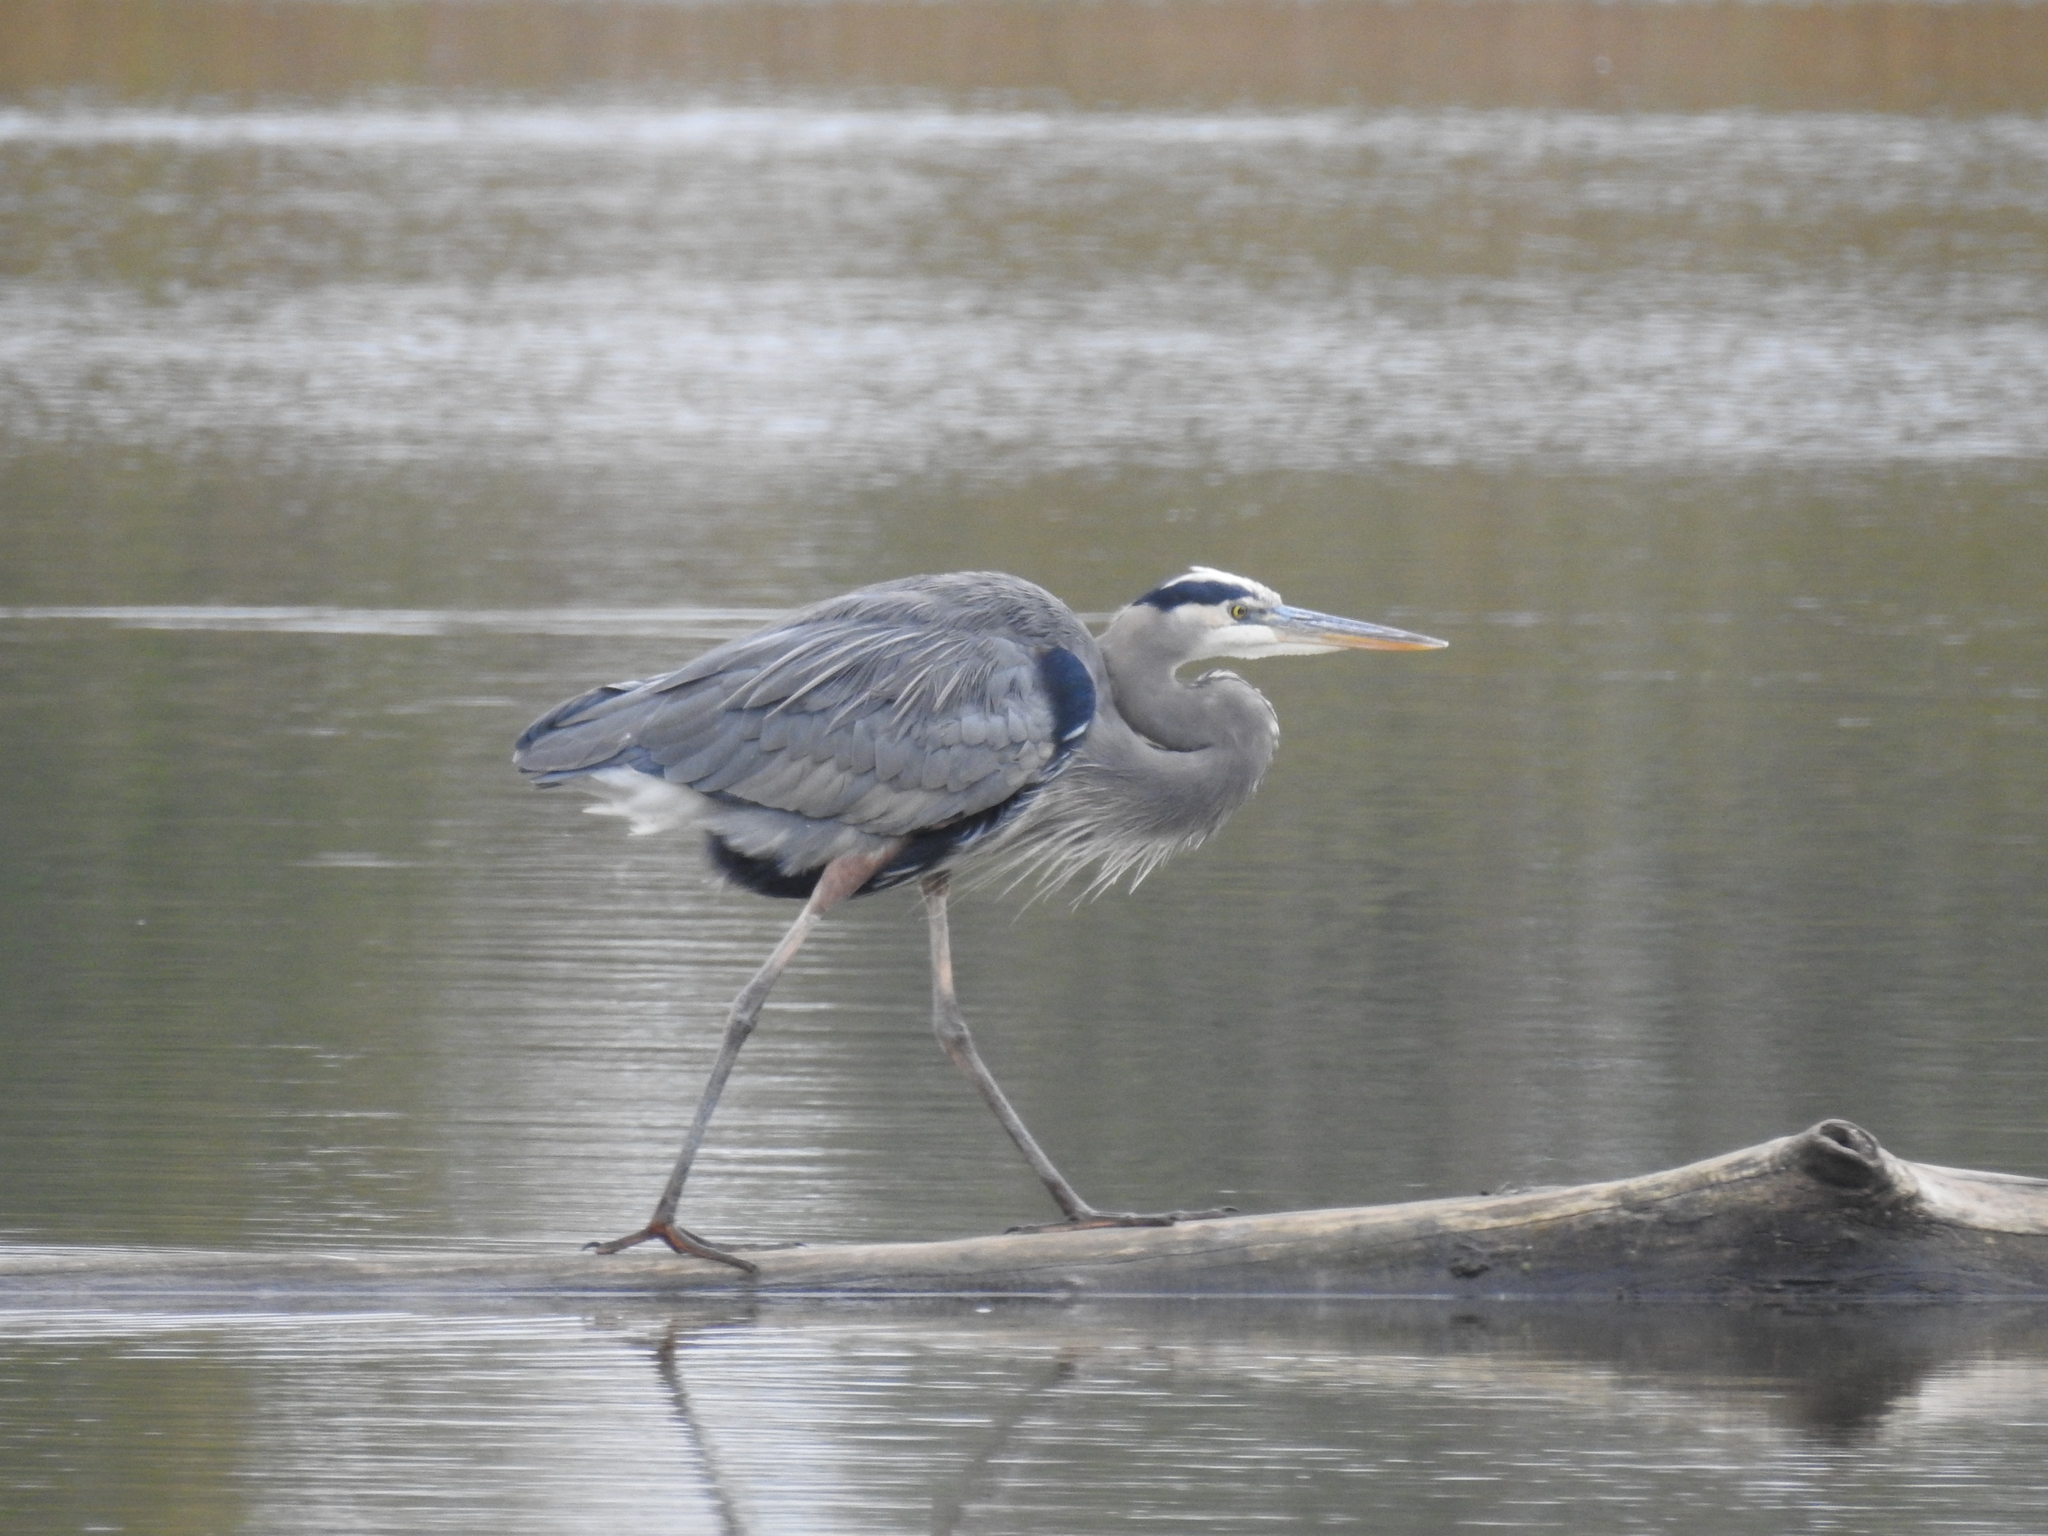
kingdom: Animalia
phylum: Chordata
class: Aves
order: Pelecaniformes
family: Ardeidae
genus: Ardea
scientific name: Ardea herodias
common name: Great blue heron
